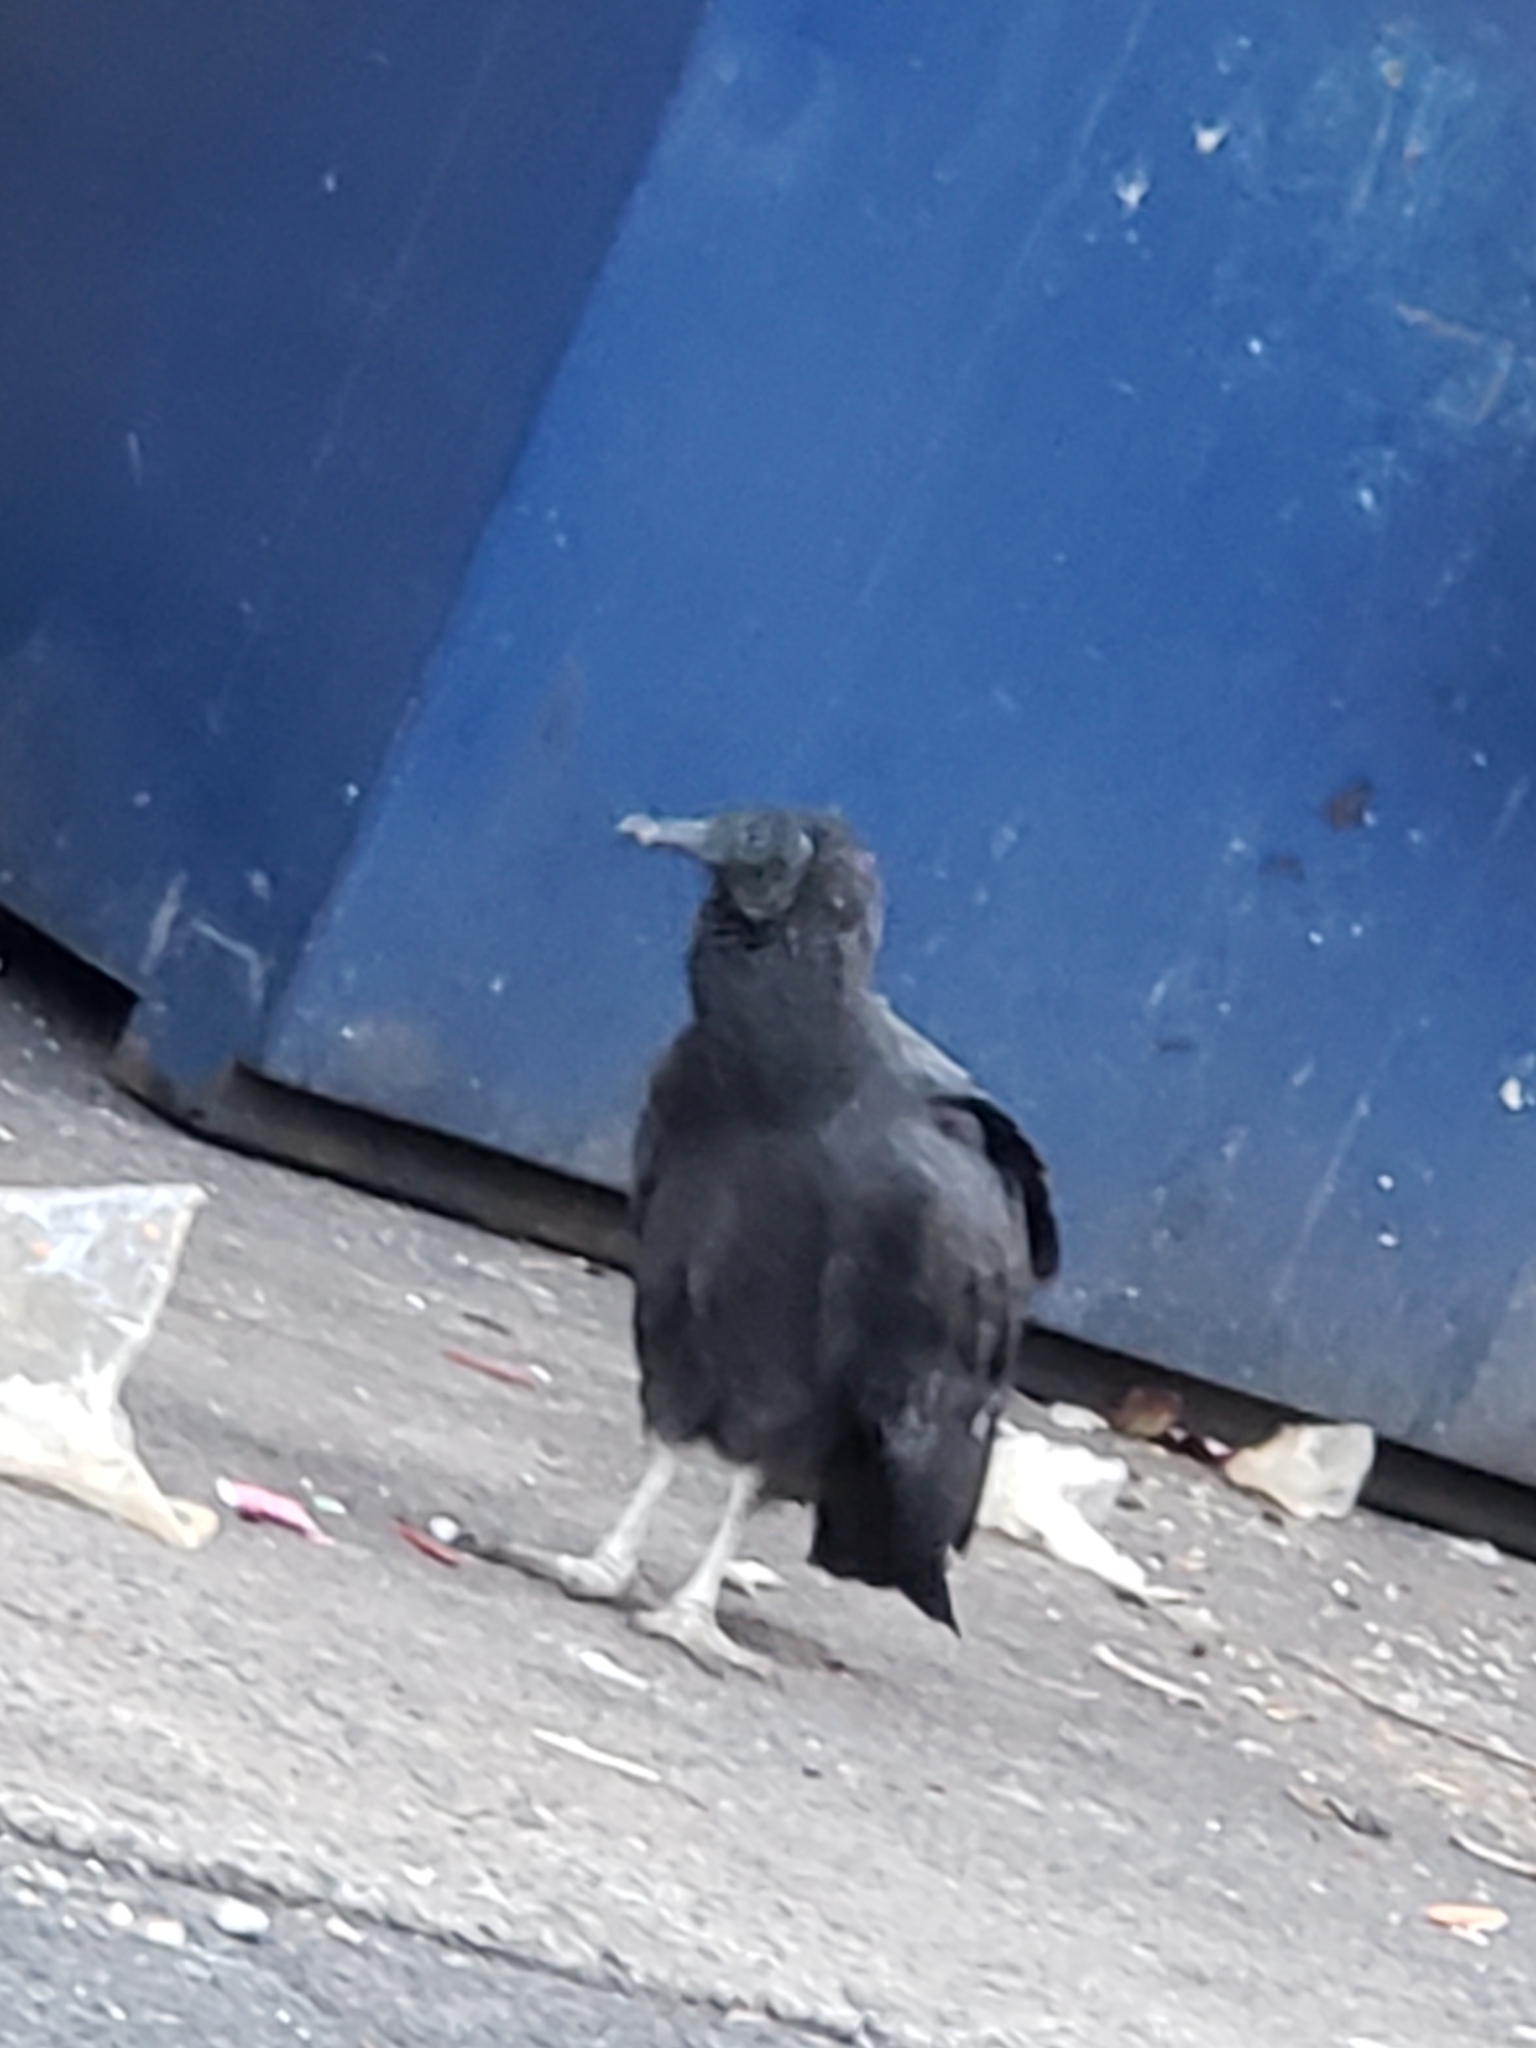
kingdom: Animalia
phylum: Chordata
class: Aves
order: Accipitriformes
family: Cathartidae
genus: Coragyps
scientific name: Coragyps atratus
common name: Black vulture
